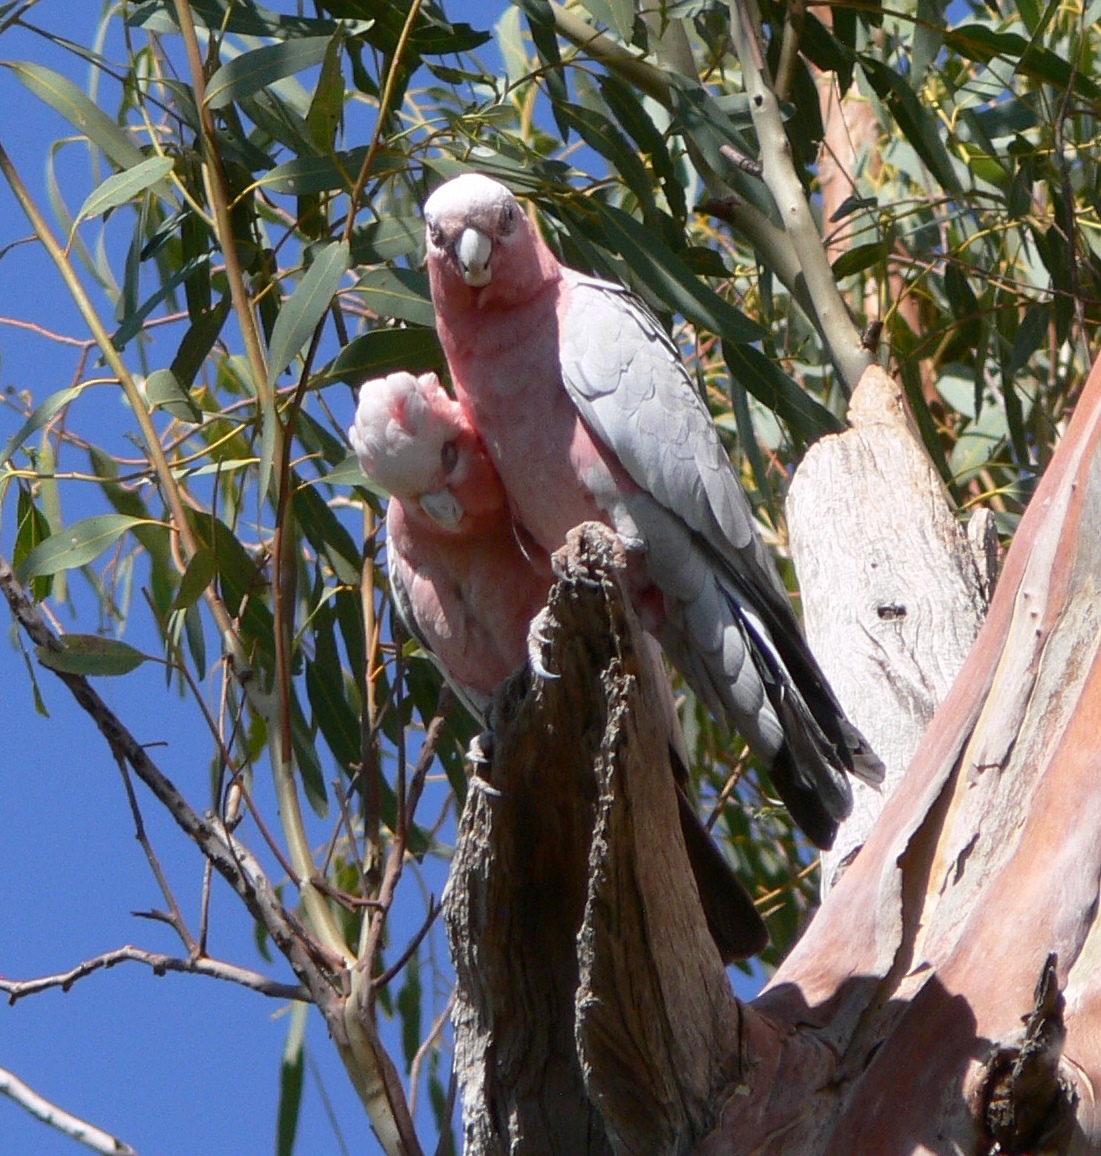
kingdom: Animalia
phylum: Chordata
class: Aves
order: Psittaciformes
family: Psittacidae
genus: Eolophus
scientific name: Eolophus roseicapilla
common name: Galah
